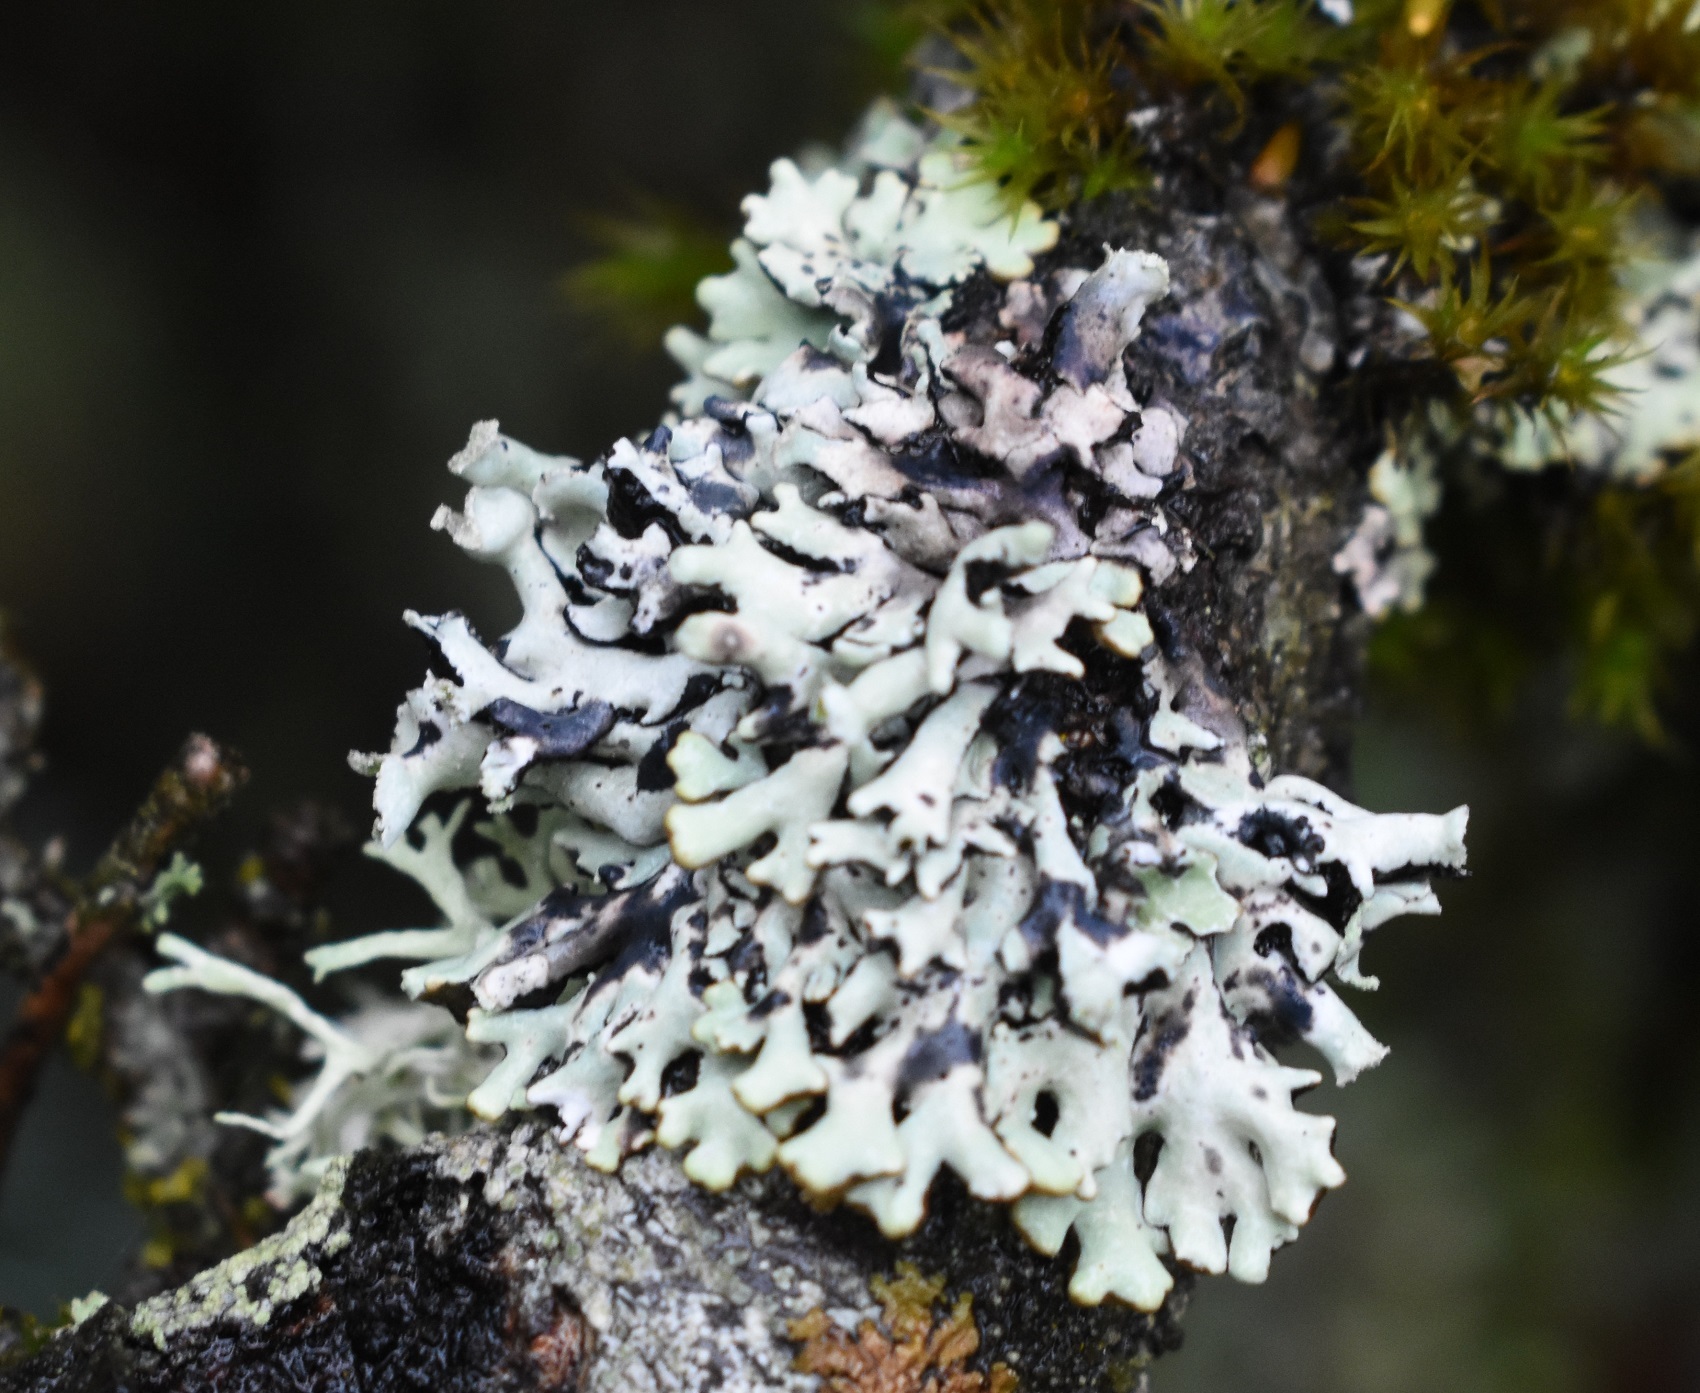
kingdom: Fungi
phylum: Ascomycota
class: Lecanoromycetes
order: Lecanorales
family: Parmeliaceae
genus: Hypogymnia
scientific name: Hypogymnia physodes
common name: Dark crottle
